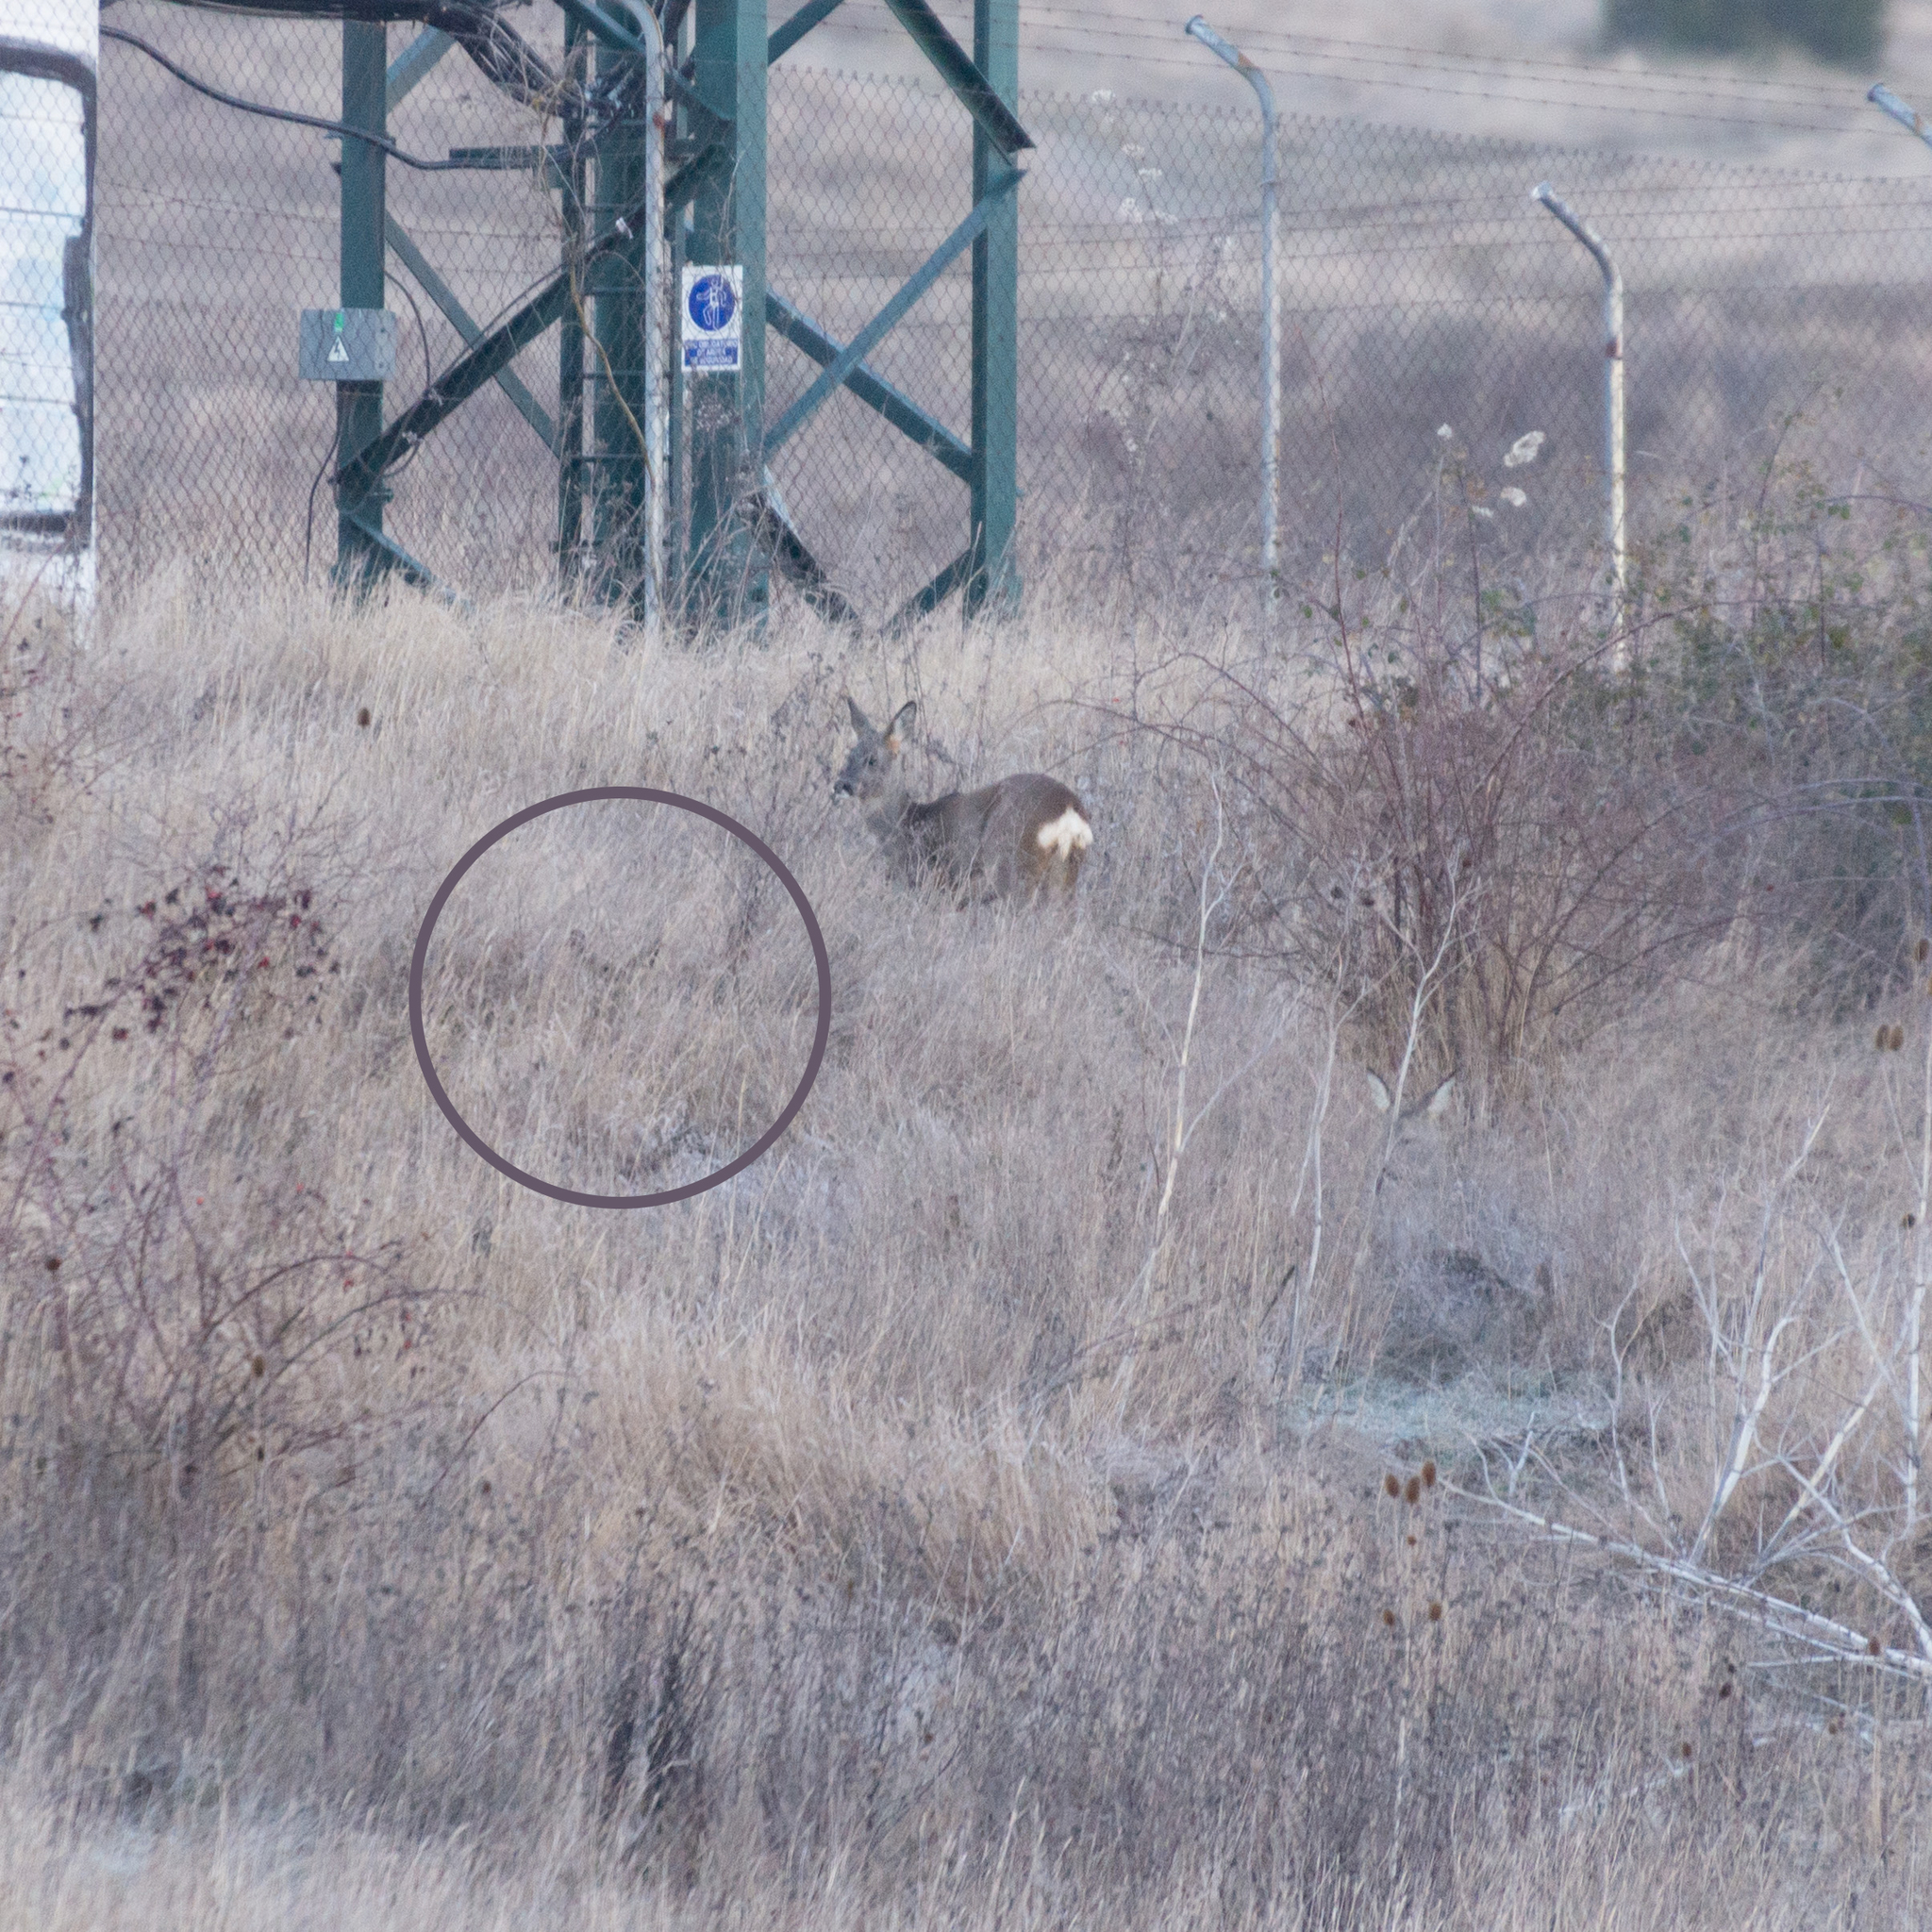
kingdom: Animalia
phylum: Chordata
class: Mammalia
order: Artiodactyla
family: Cervidae
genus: Capreolus
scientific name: Capreolus capreolus
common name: Western roe deer
